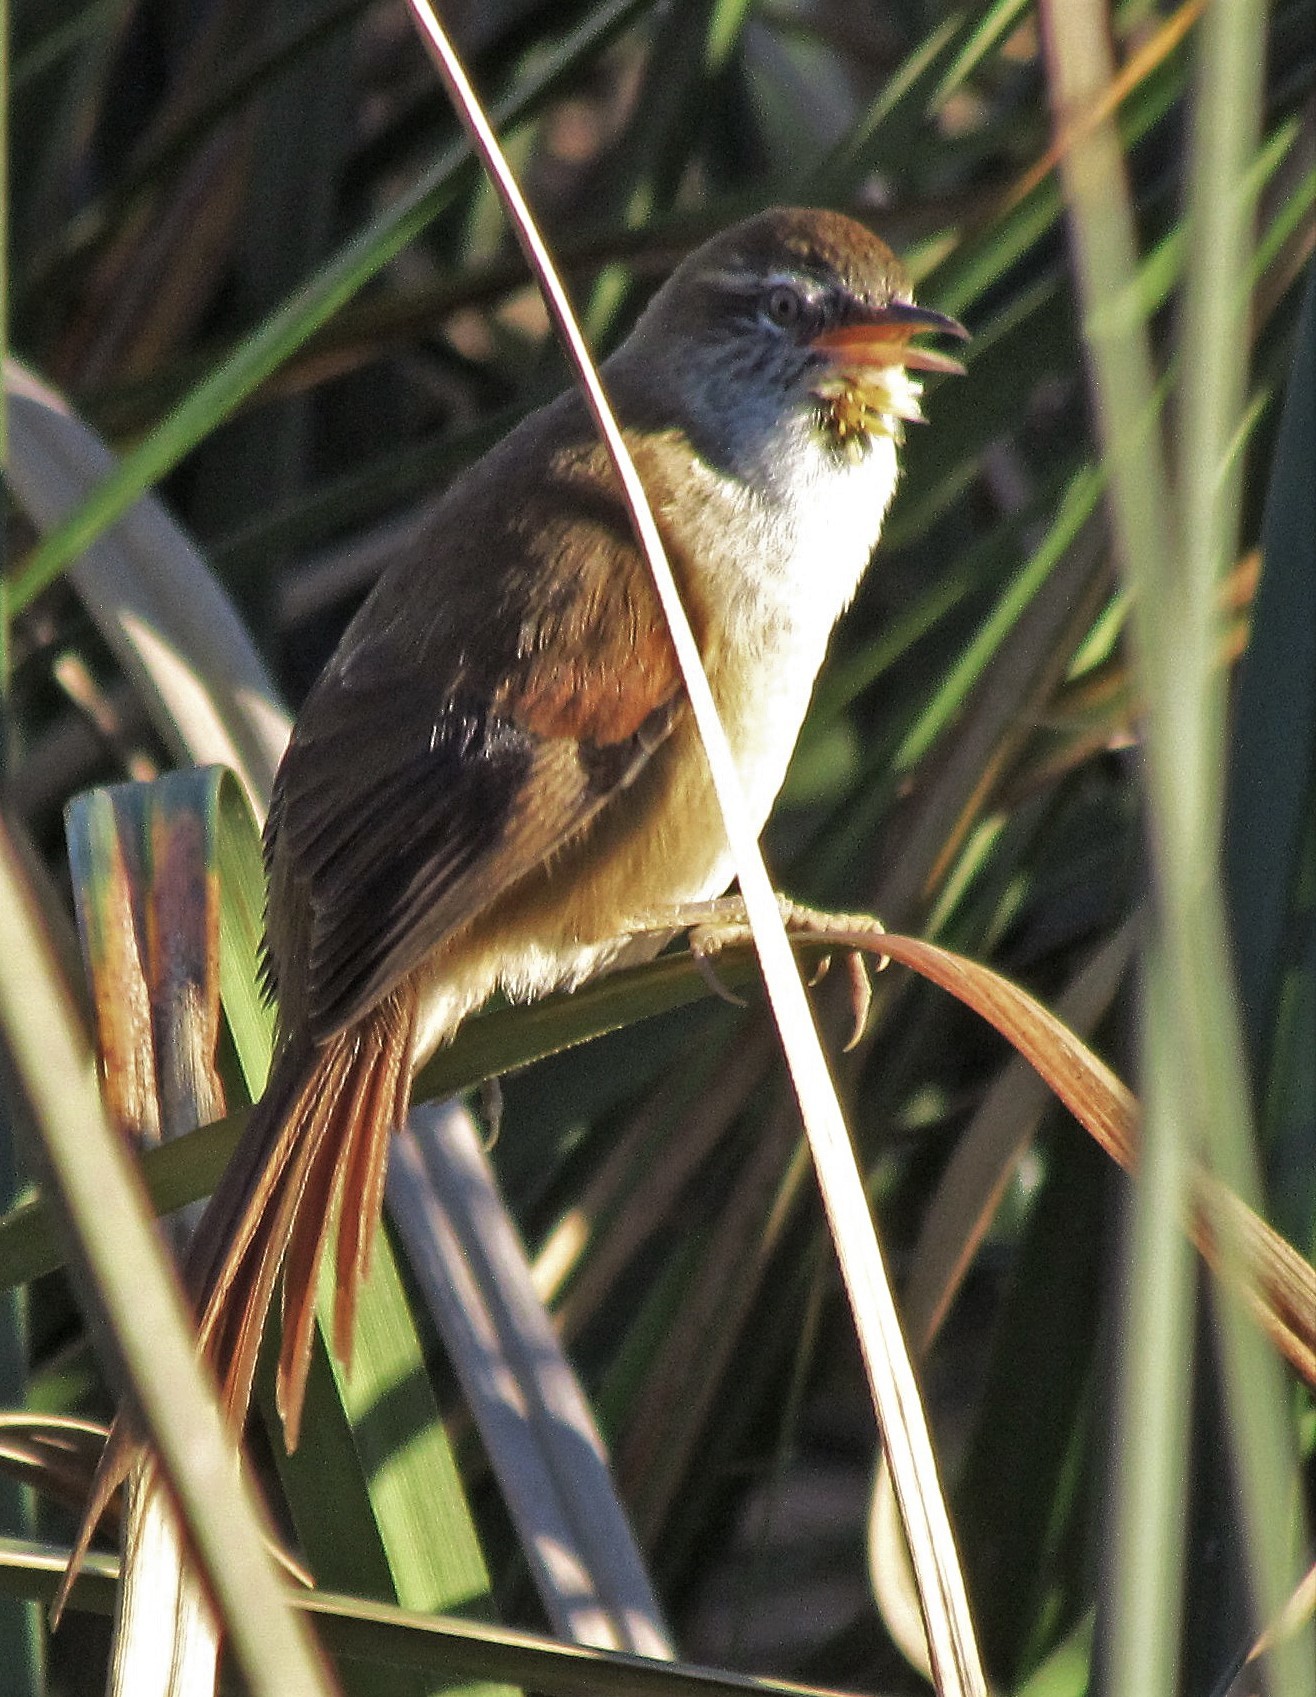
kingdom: Animalia
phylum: Chordata
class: Aves
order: Passeriformes
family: Furnariidae
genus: Cranioleuca
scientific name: Cranioleuca sulphurifera
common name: Sulphur-bearded spinetail
